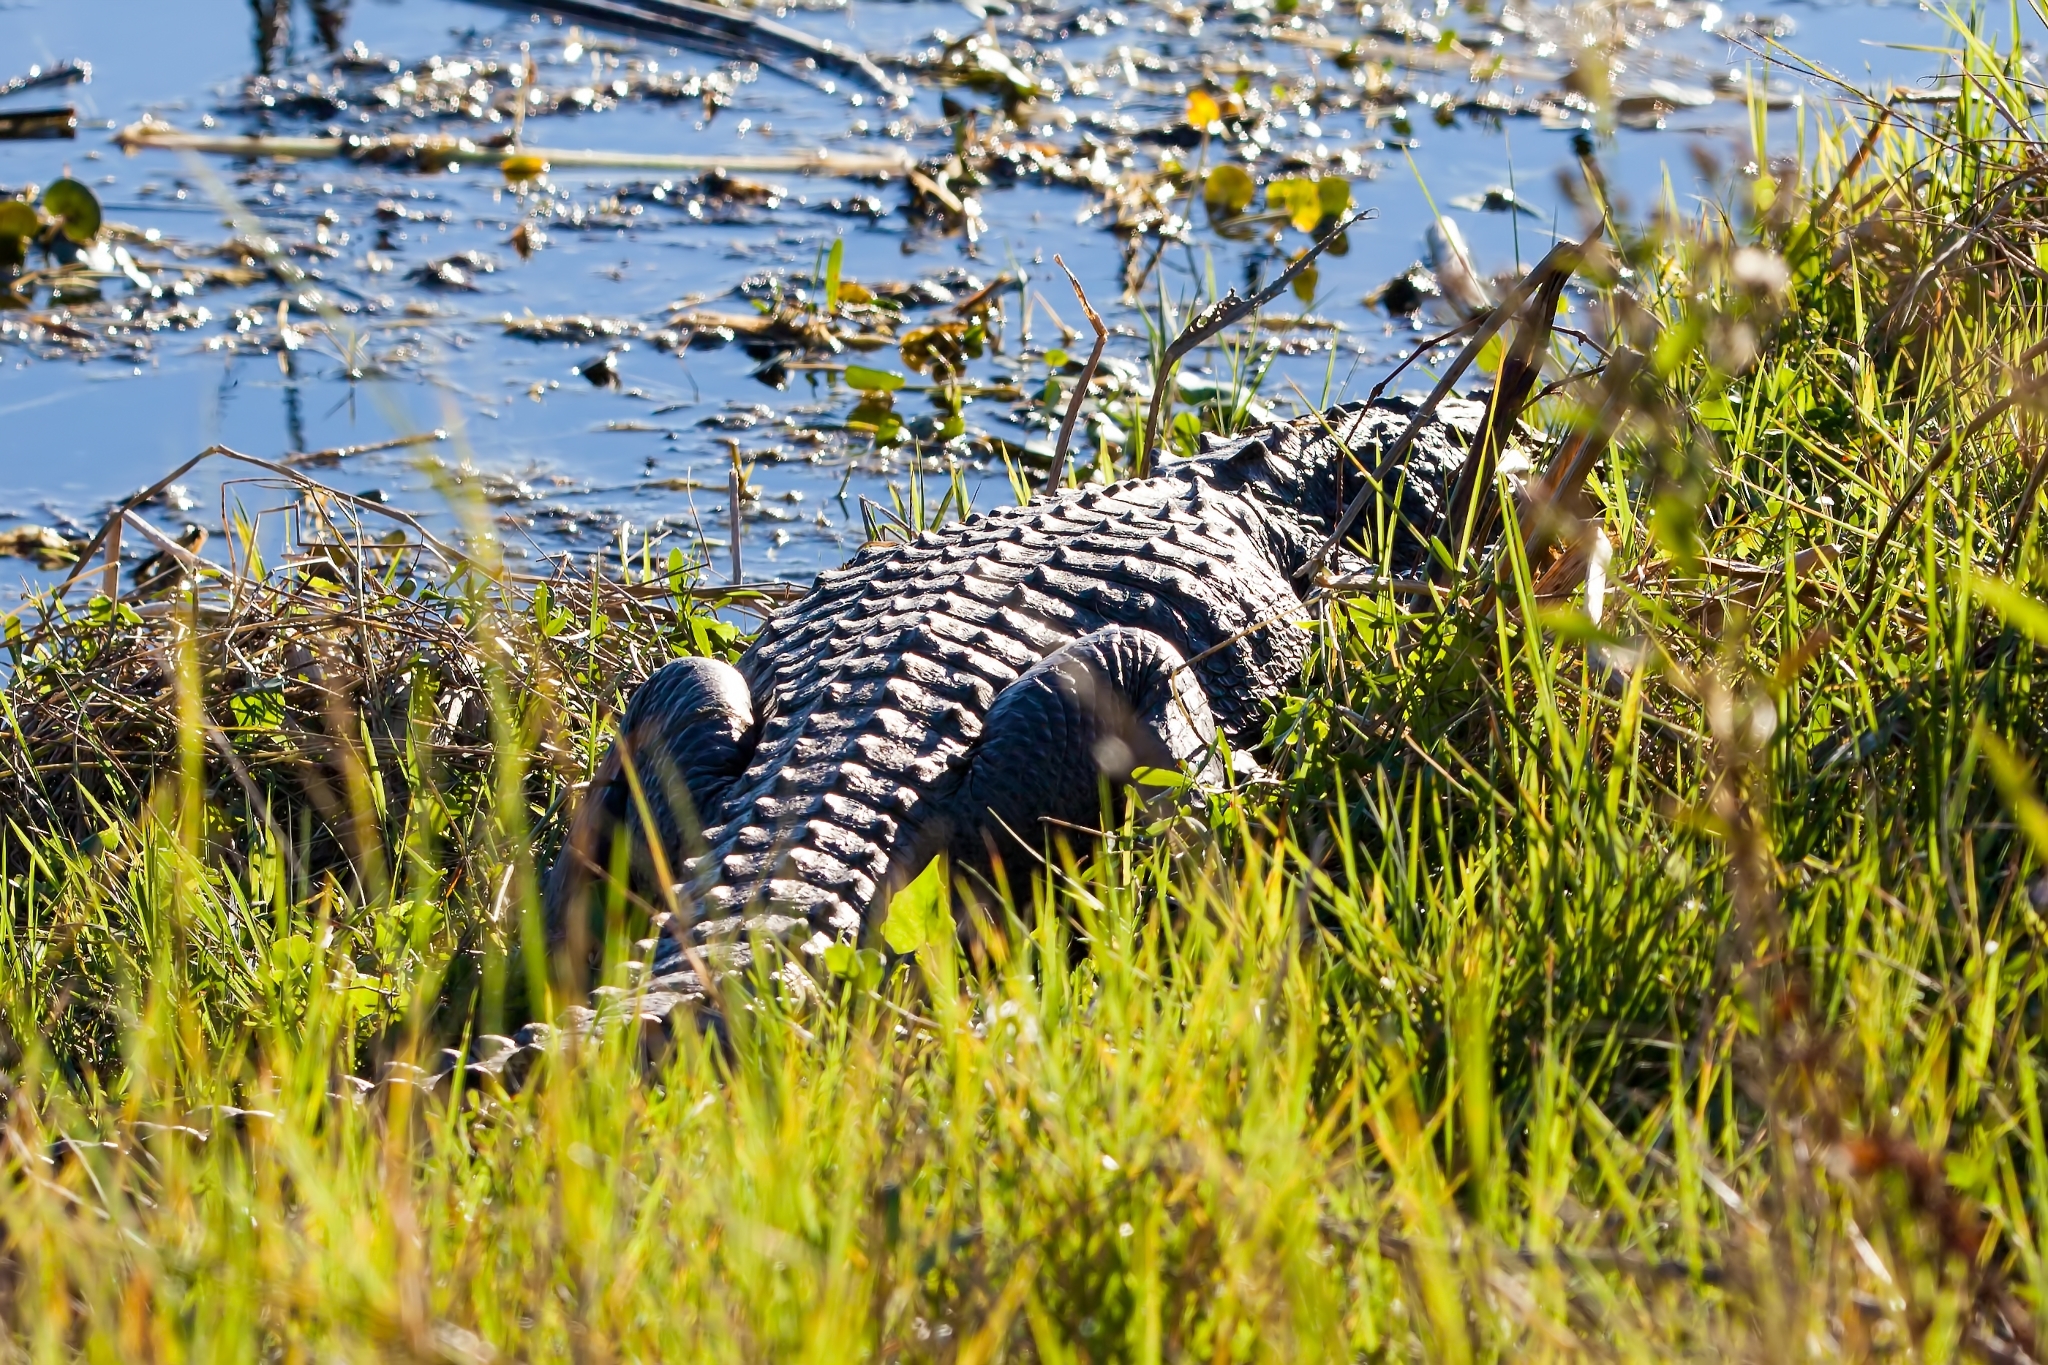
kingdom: Animalia
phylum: Chordata
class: Crocodylia
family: Alligatoridae
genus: Alligator
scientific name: Alligator mississippiensis
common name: American alligator
